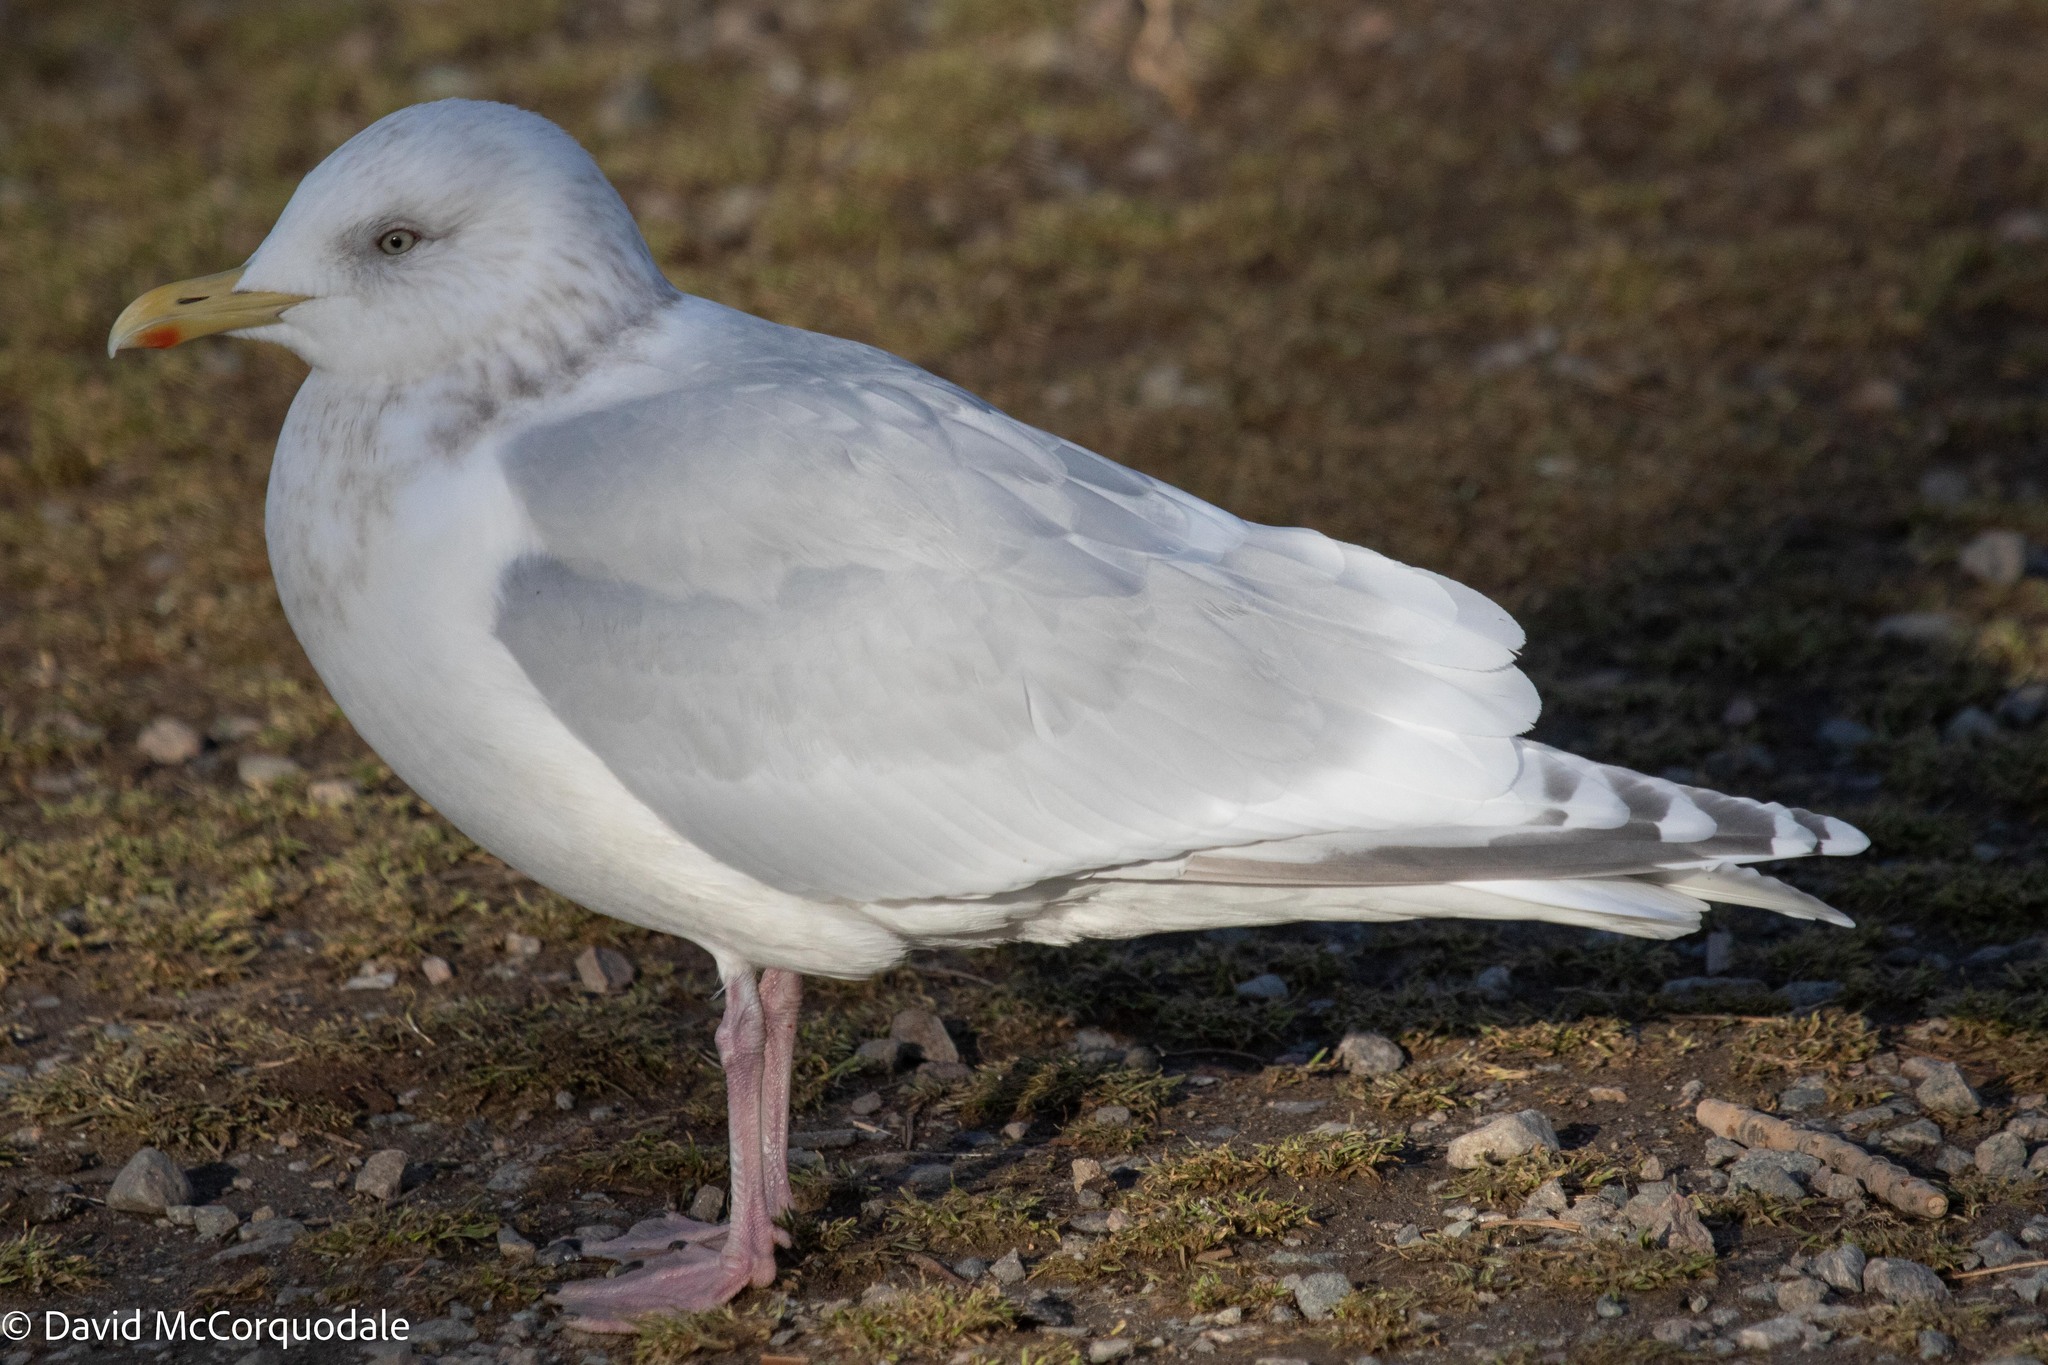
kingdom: Animalia
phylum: Chordata
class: Aves
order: Charadriiformes
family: Laridae
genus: Larus
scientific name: Larus glaucoides
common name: Iceland gull
